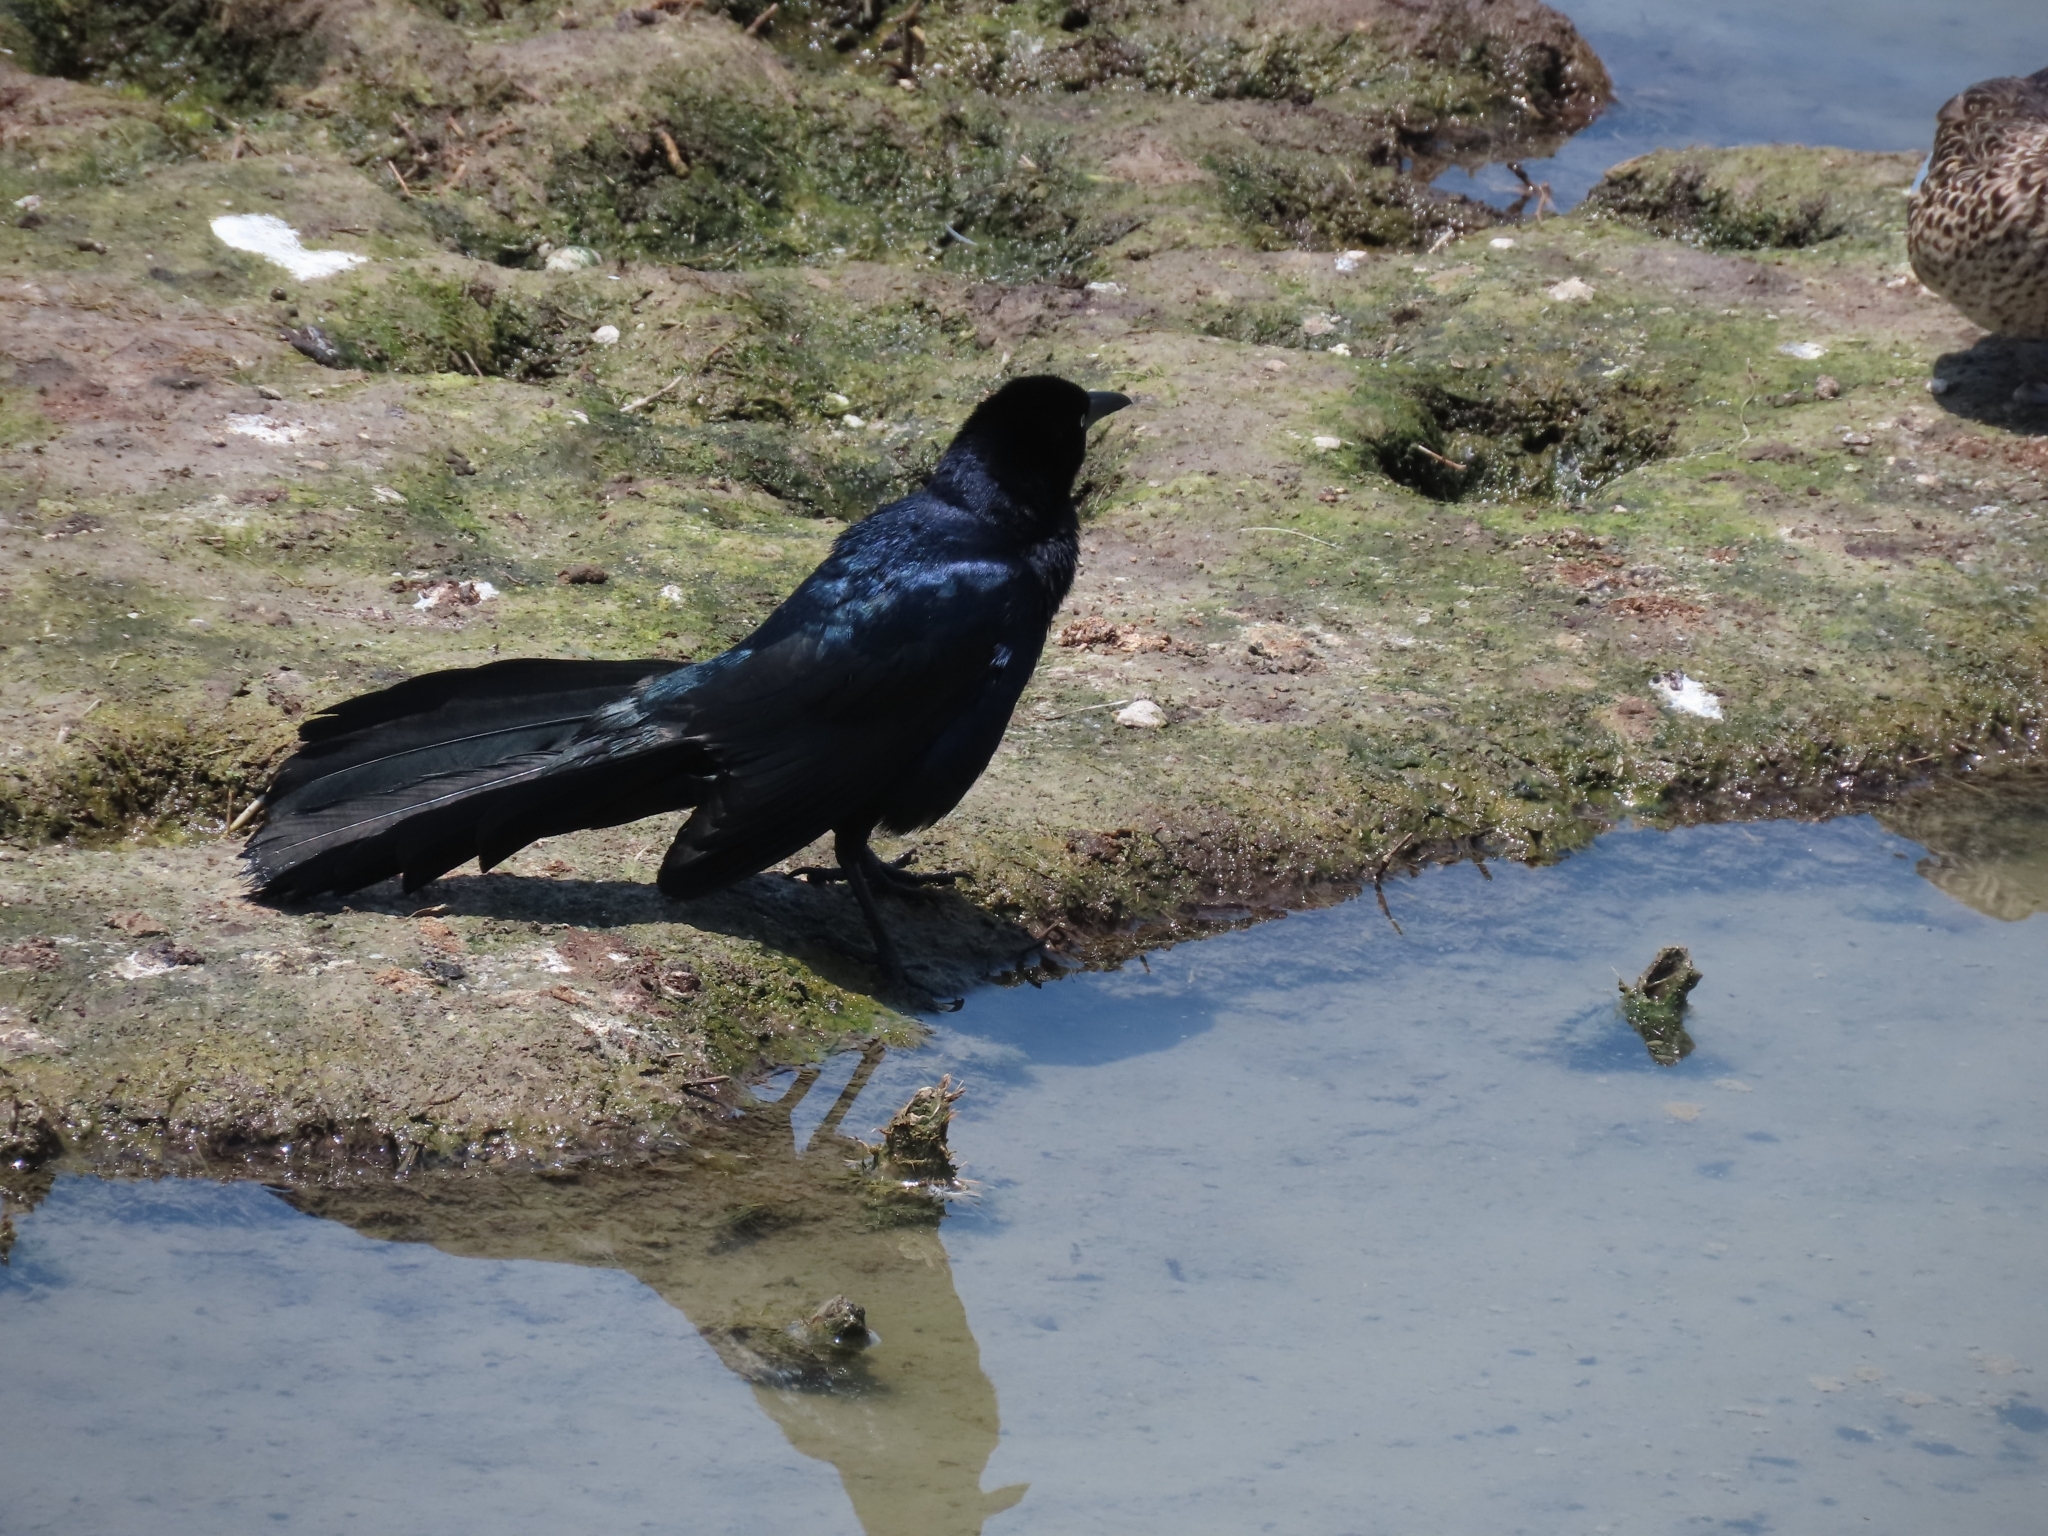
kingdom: Animalia
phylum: Chordata
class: Aves
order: Passeriformes
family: Icteridae
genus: Quiscalus
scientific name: Quiscalus mexicanus
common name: Great-tailed grackle
